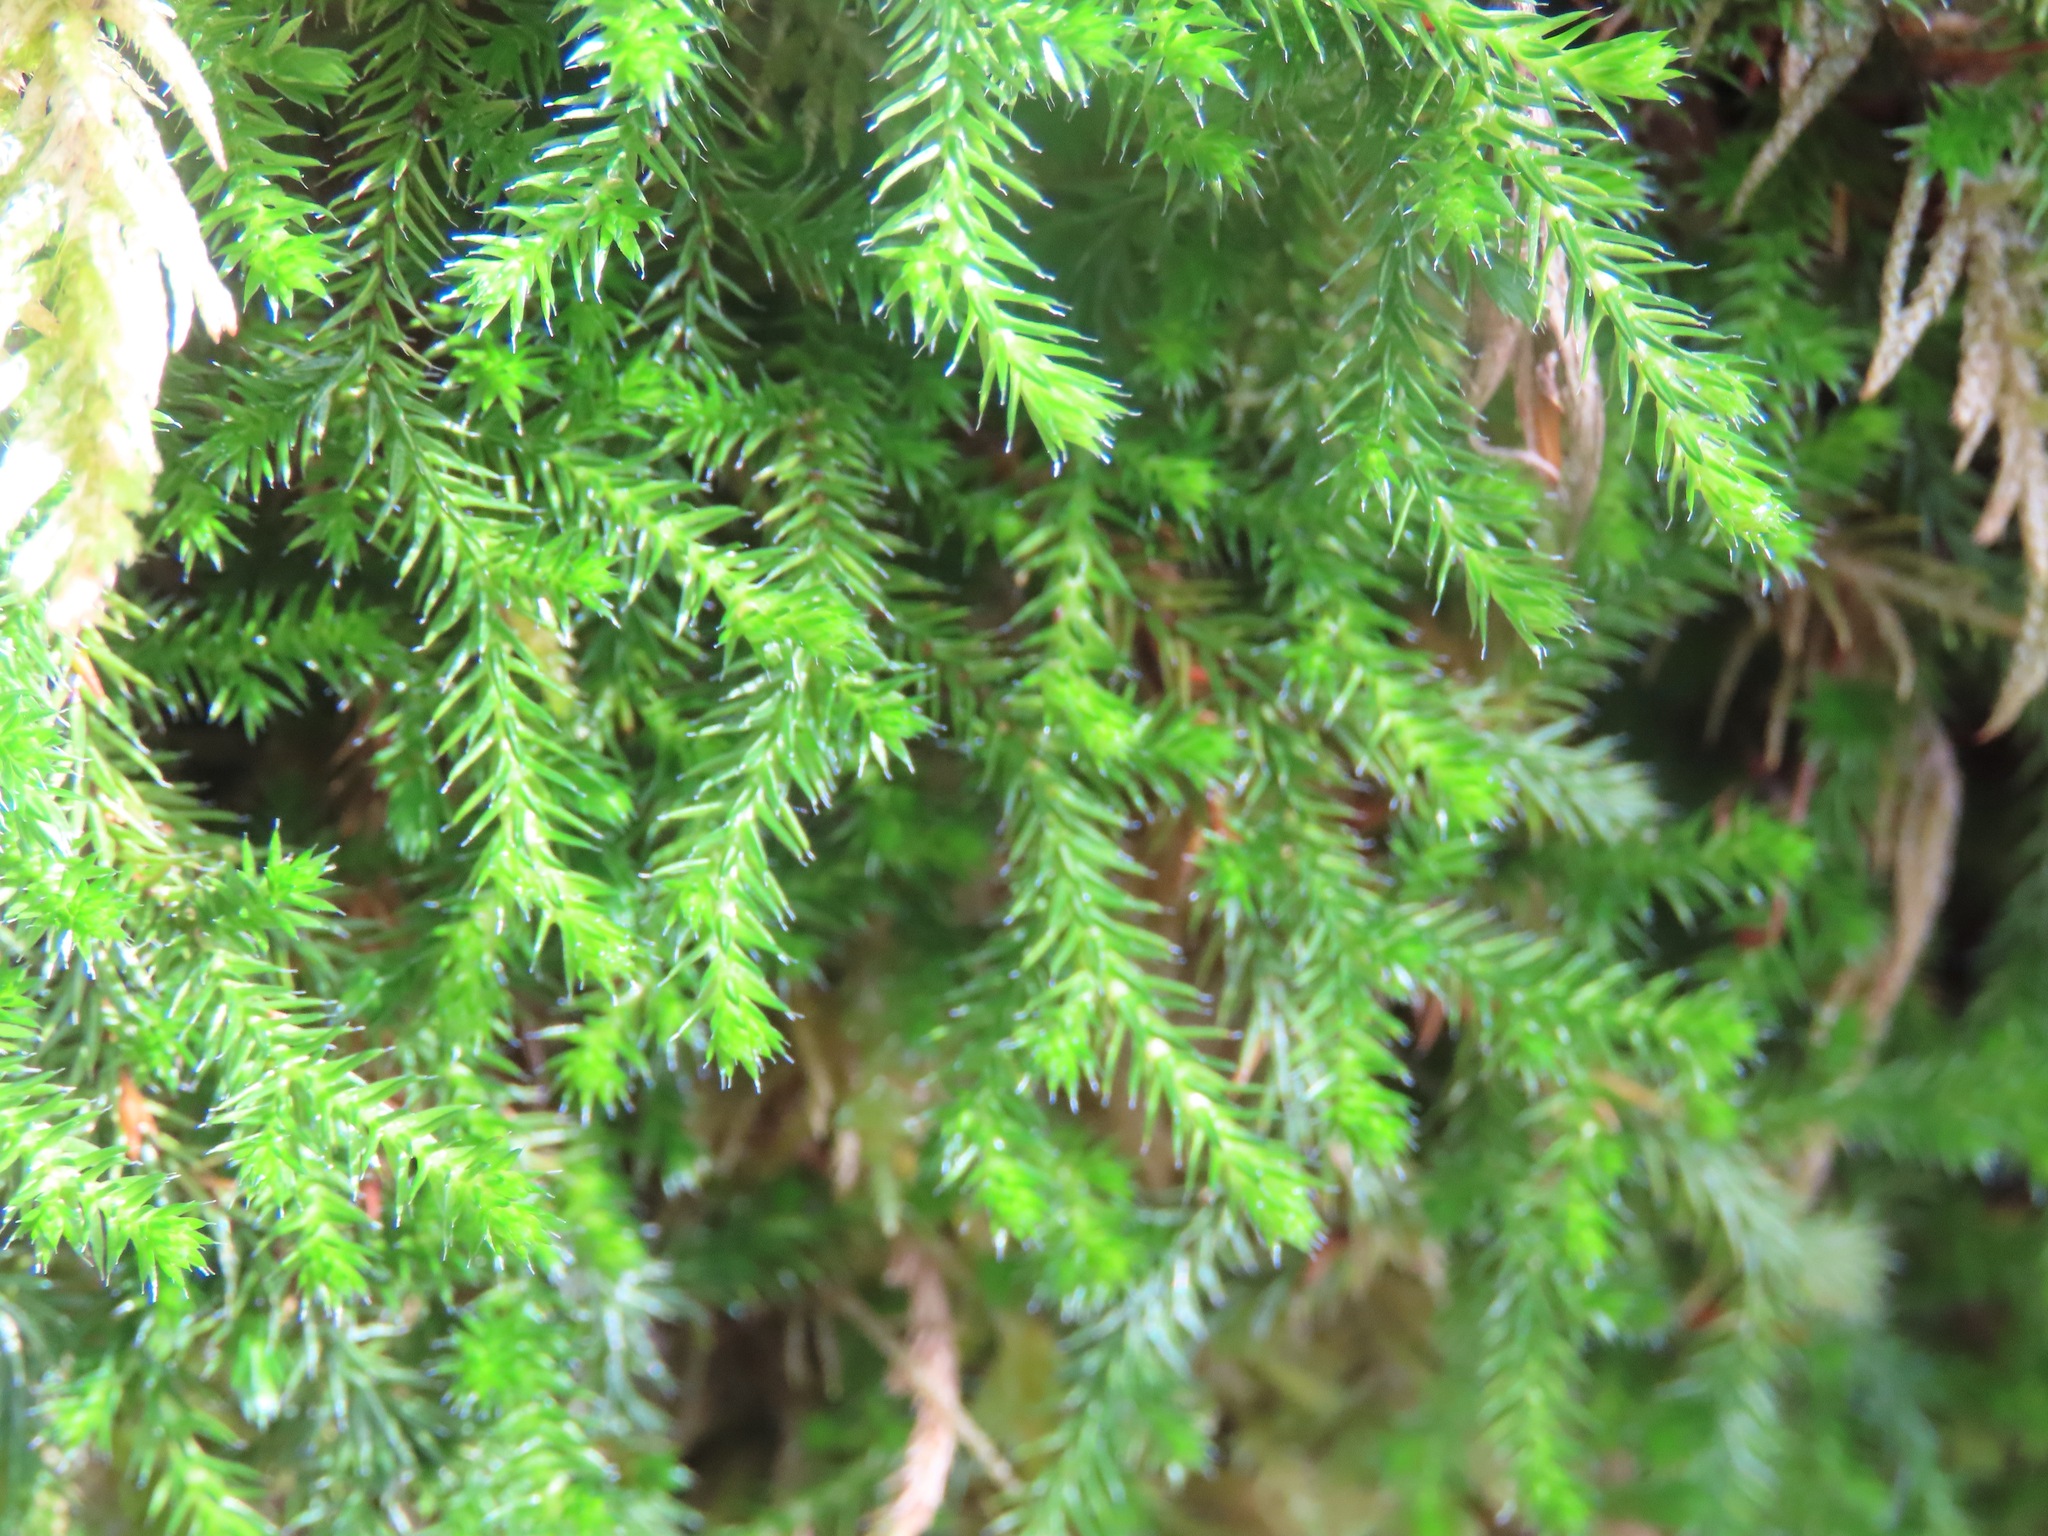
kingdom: Plantae
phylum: Tracheophyta
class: Lycopodiopsida
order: Selaginellales
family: Selaginellaceae
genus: Selaginella
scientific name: Selaginella wallacei
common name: Wallace's selaginella
